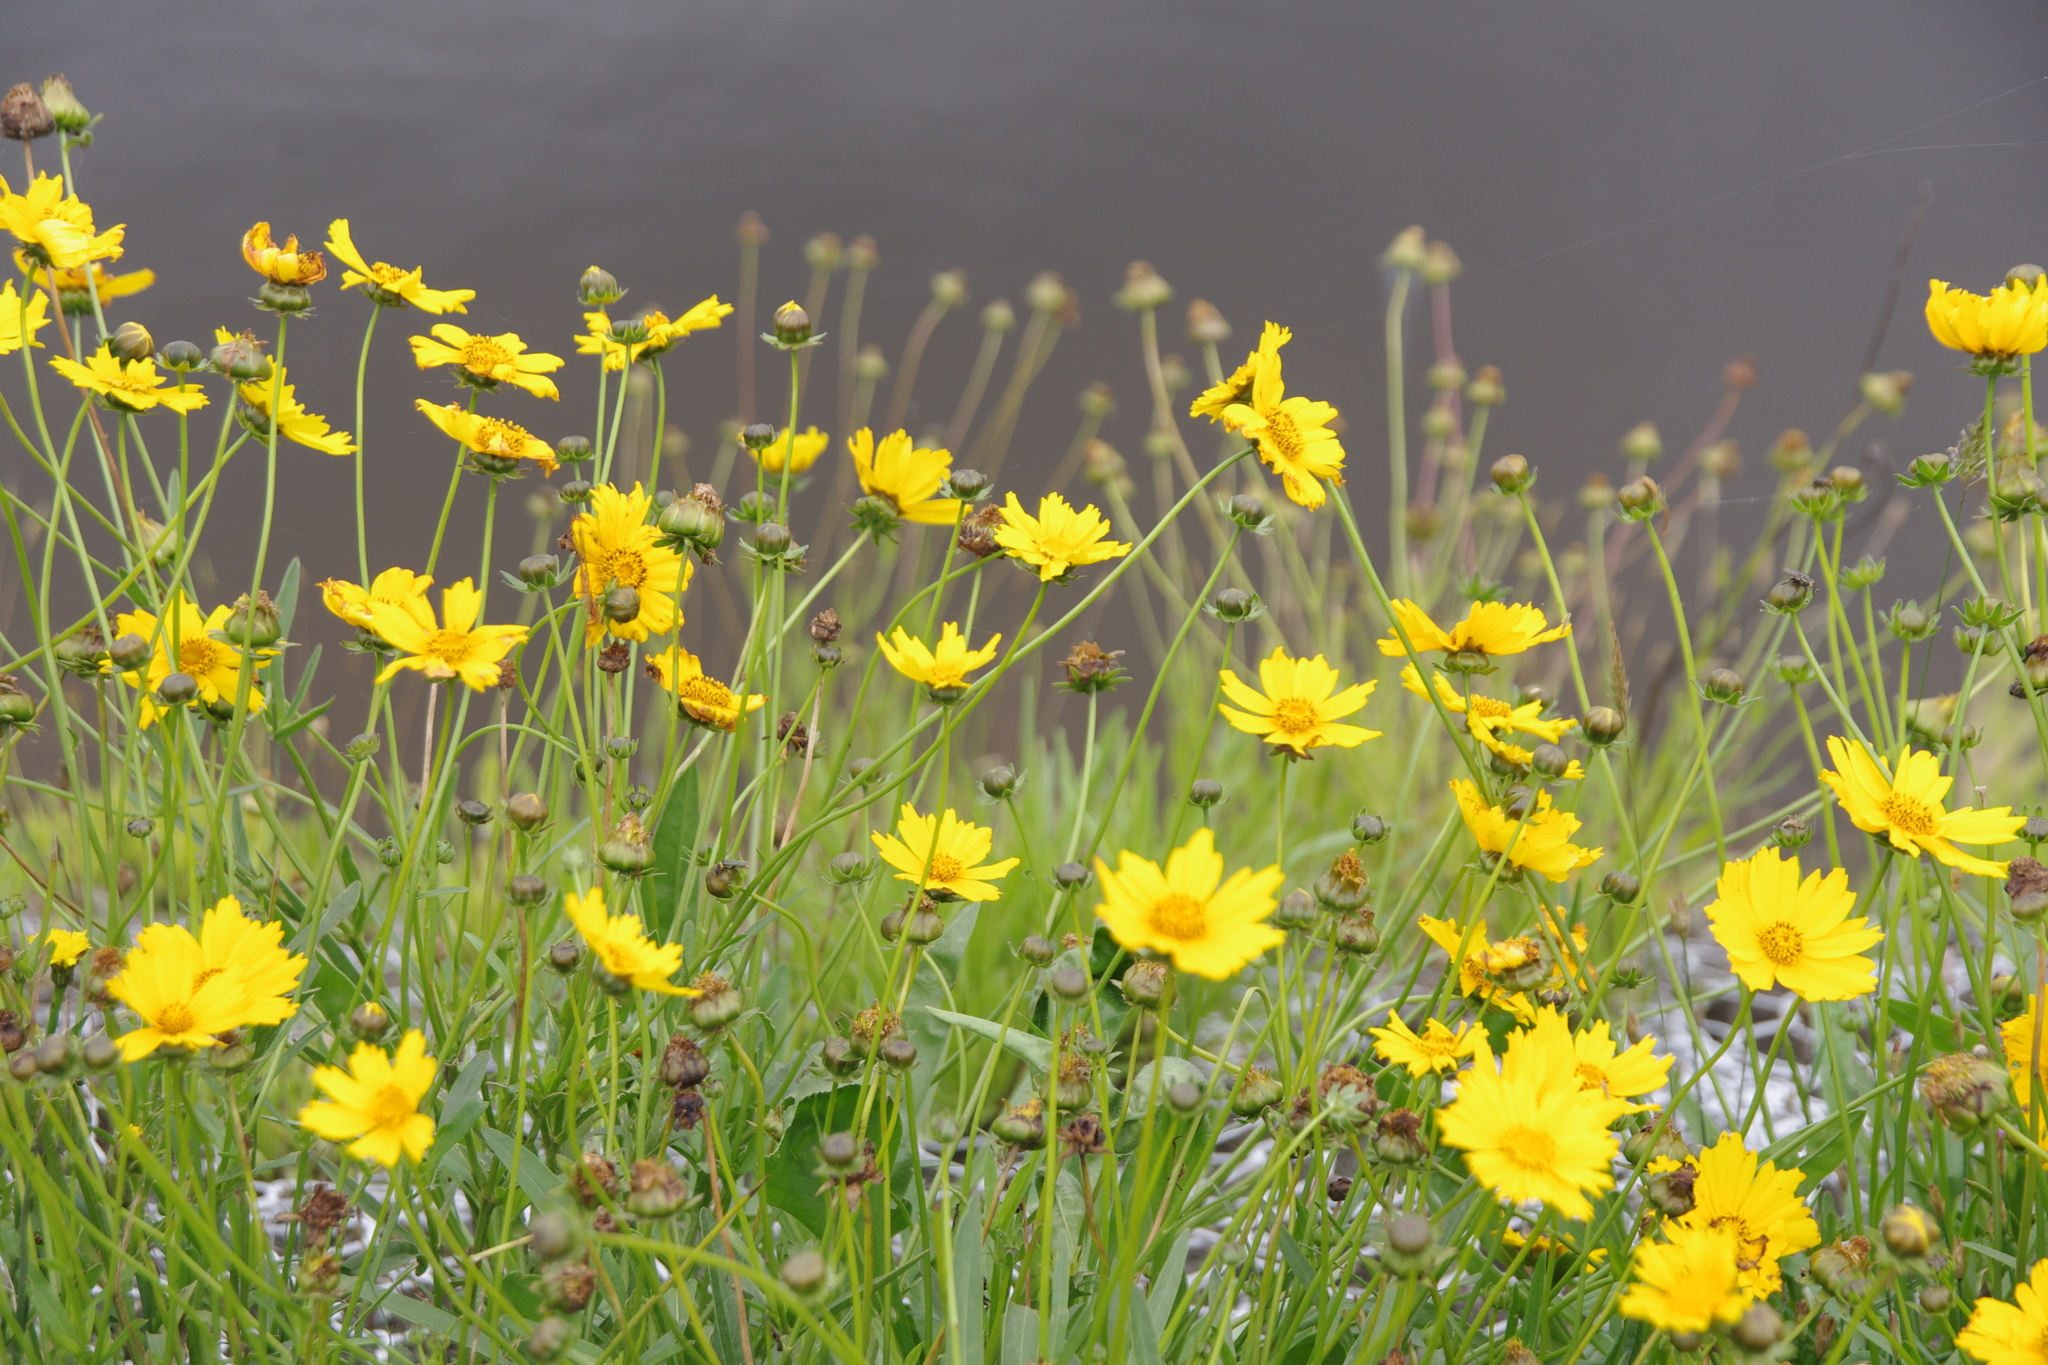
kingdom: Plantae
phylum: Tracheophyta
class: Magnoliopsida
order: Asterales
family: Asteraceae
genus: Coreopsis
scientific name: Coreopsis lanceolata
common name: Garden coreopsis
